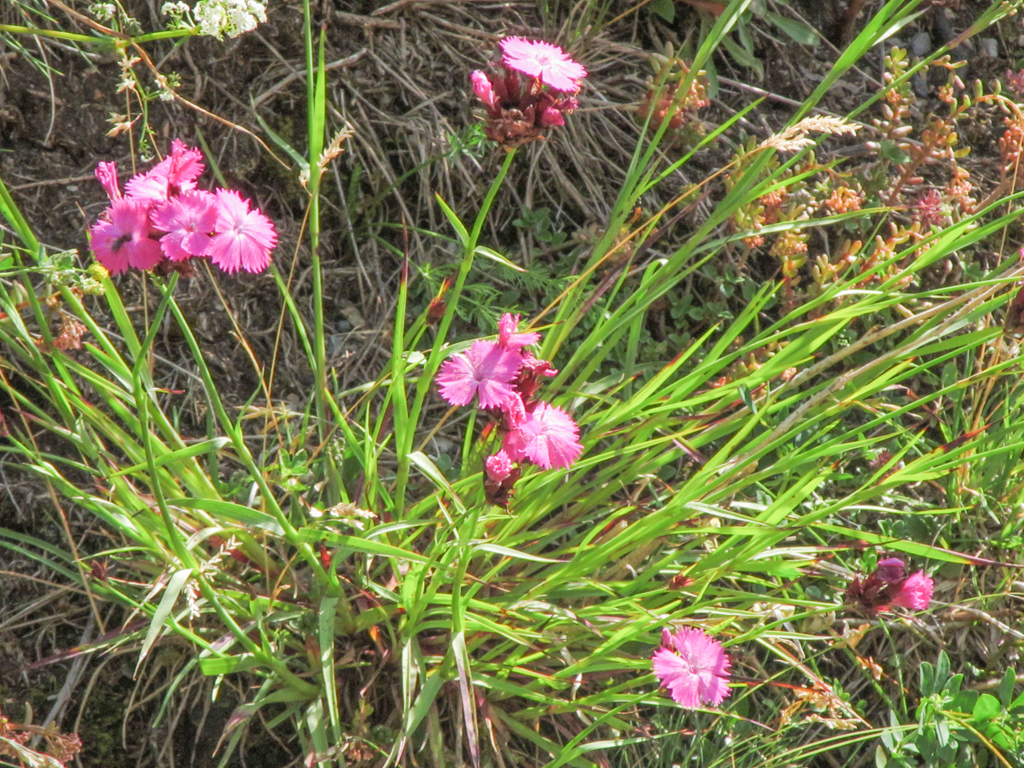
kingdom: Plantae
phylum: Tracheophyta
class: Magnoliopsida
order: Caryophyllales
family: Caryophyllaceae
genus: Dianthus
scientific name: Dianthus carthusianorum
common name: Carthusian pink
